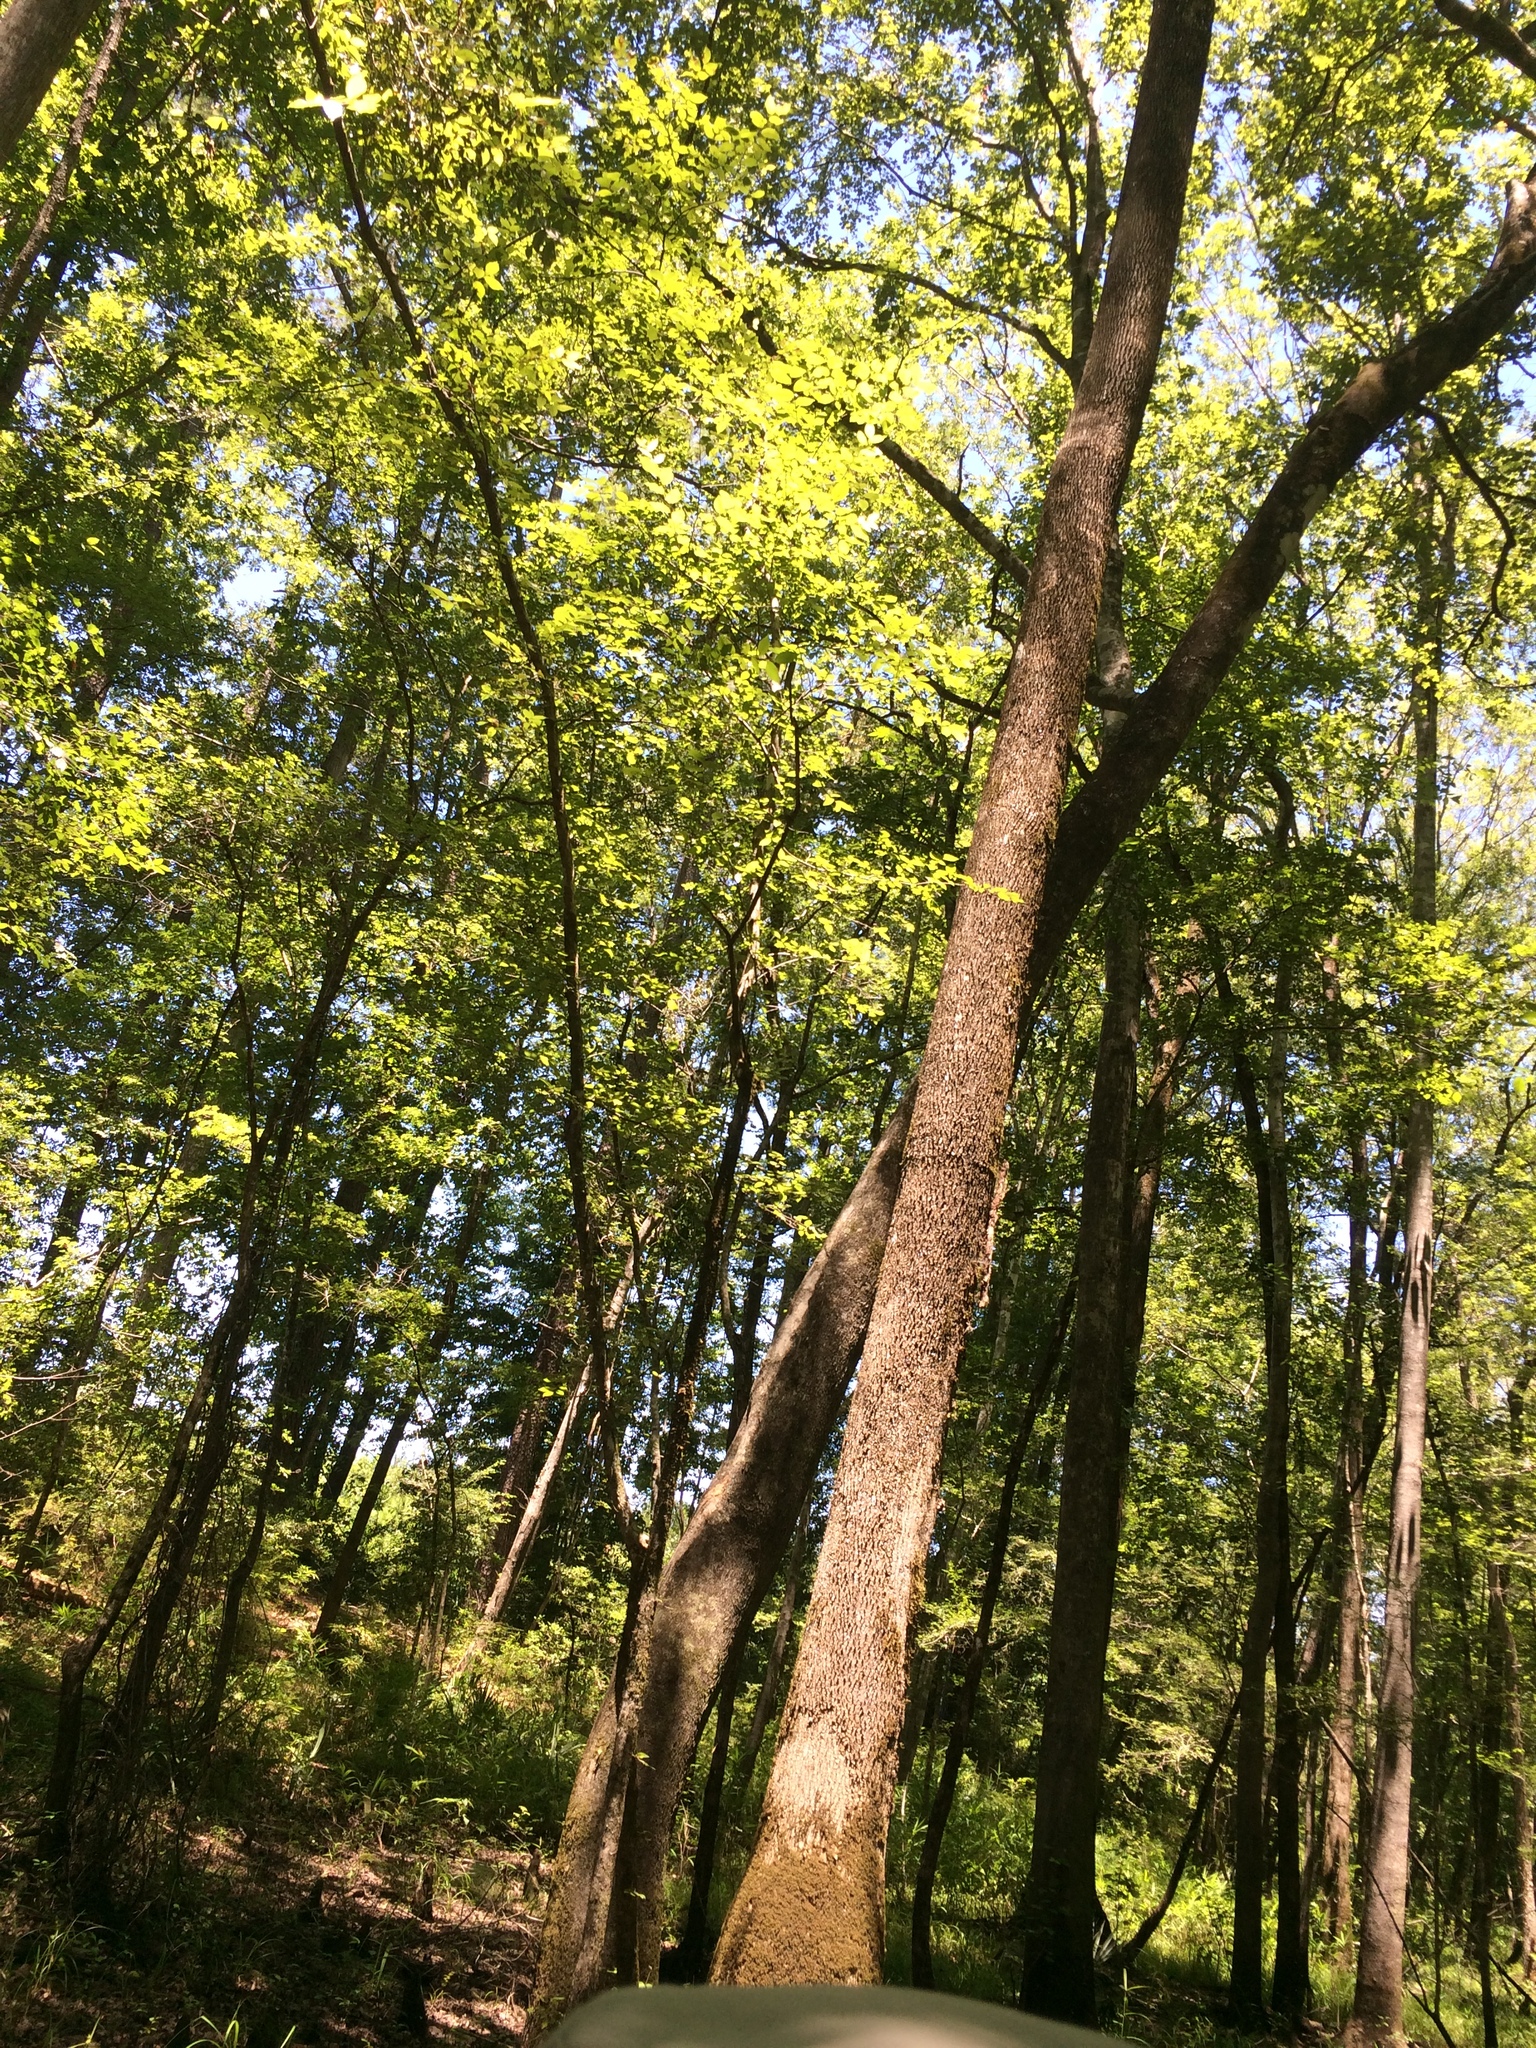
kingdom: Plantae
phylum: Tracheophyta
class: Magnoliopsida
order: Lamiales
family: Oleaceae
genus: Fraxinus
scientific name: Fraxinus pennsylvanica
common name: Green ash
